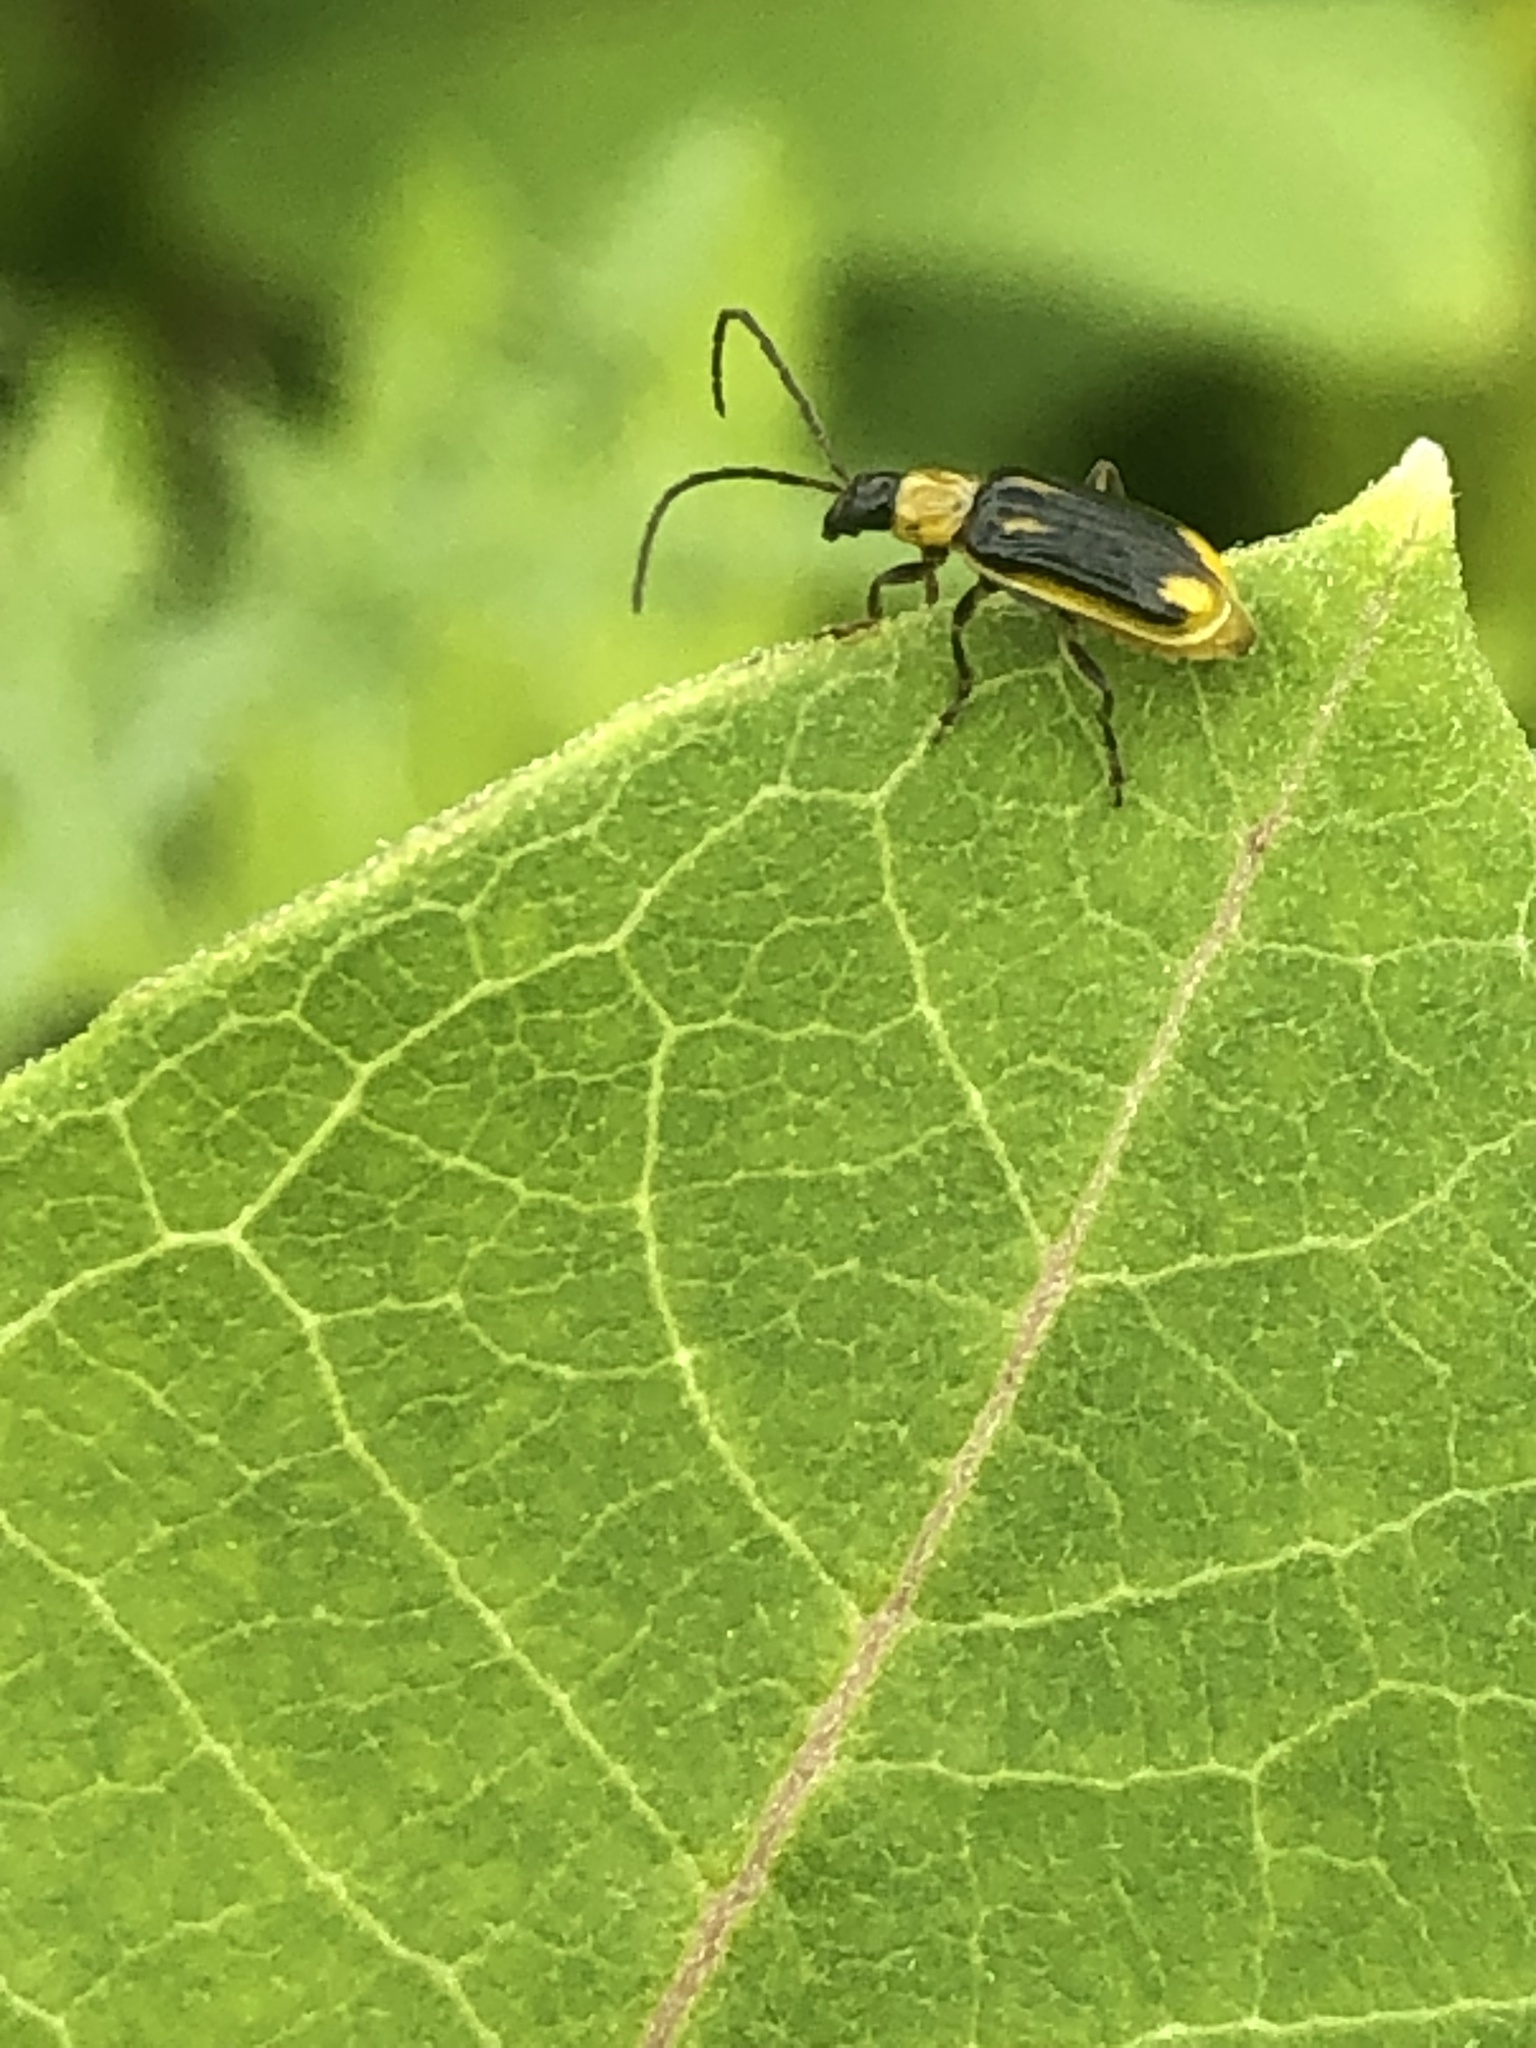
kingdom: Animalia
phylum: Arthropoda
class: Insecta
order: Coleoptera
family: Chrysomelidae
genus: Diabrotica
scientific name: Diabrotica virgifera
